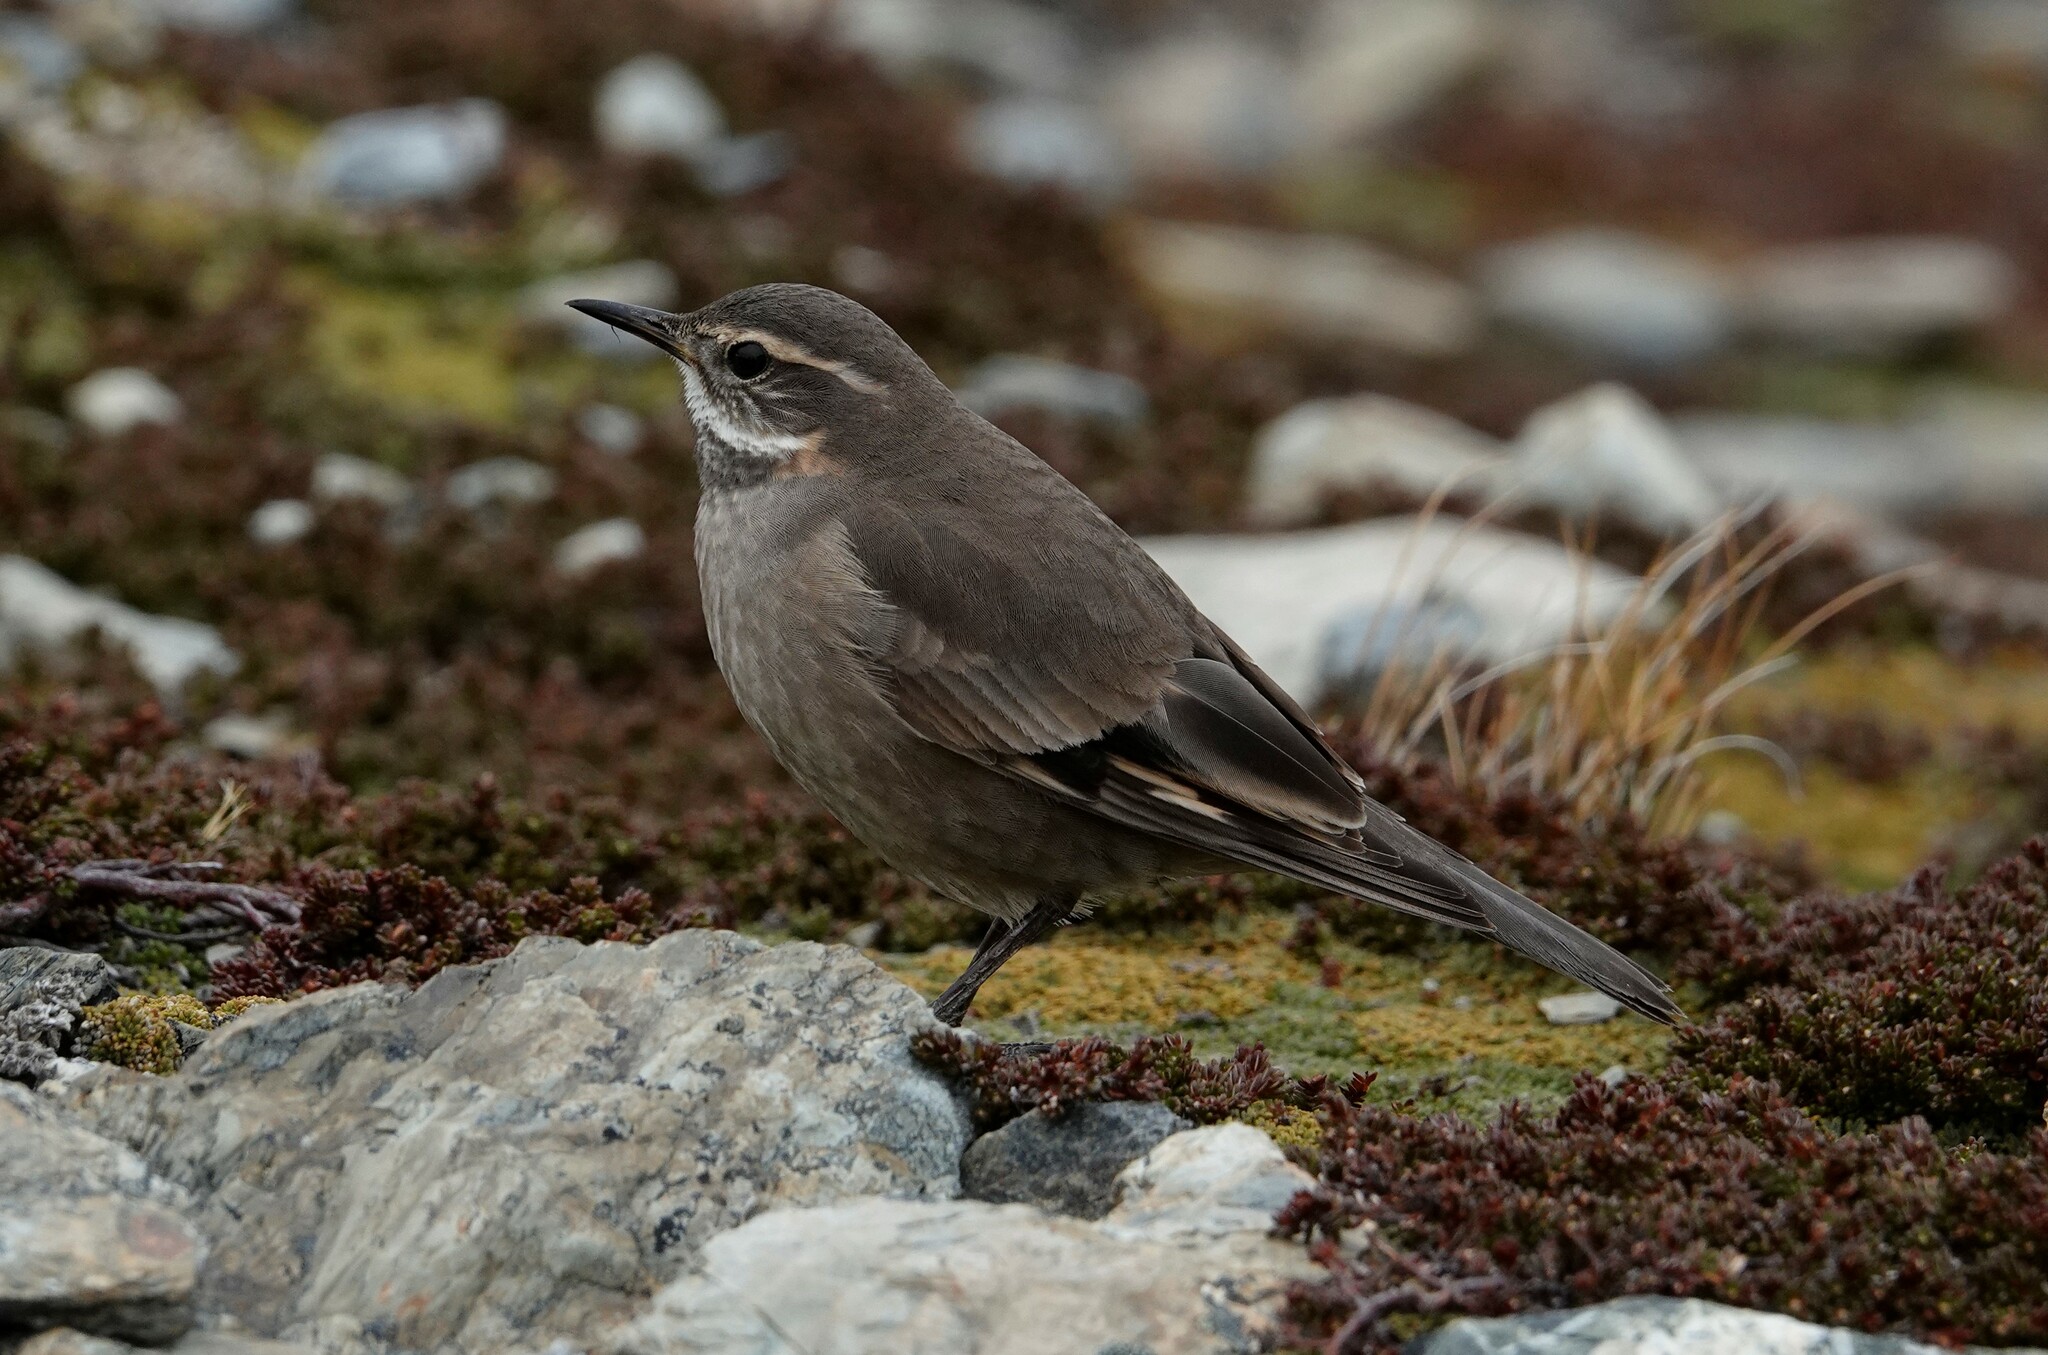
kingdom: Animalia
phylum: Chordata
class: Aves
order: Passeriformes
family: Furnariidae
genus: Cinclodes
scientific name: Cinclodes fuscus
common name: Buff-winged cinclodes
